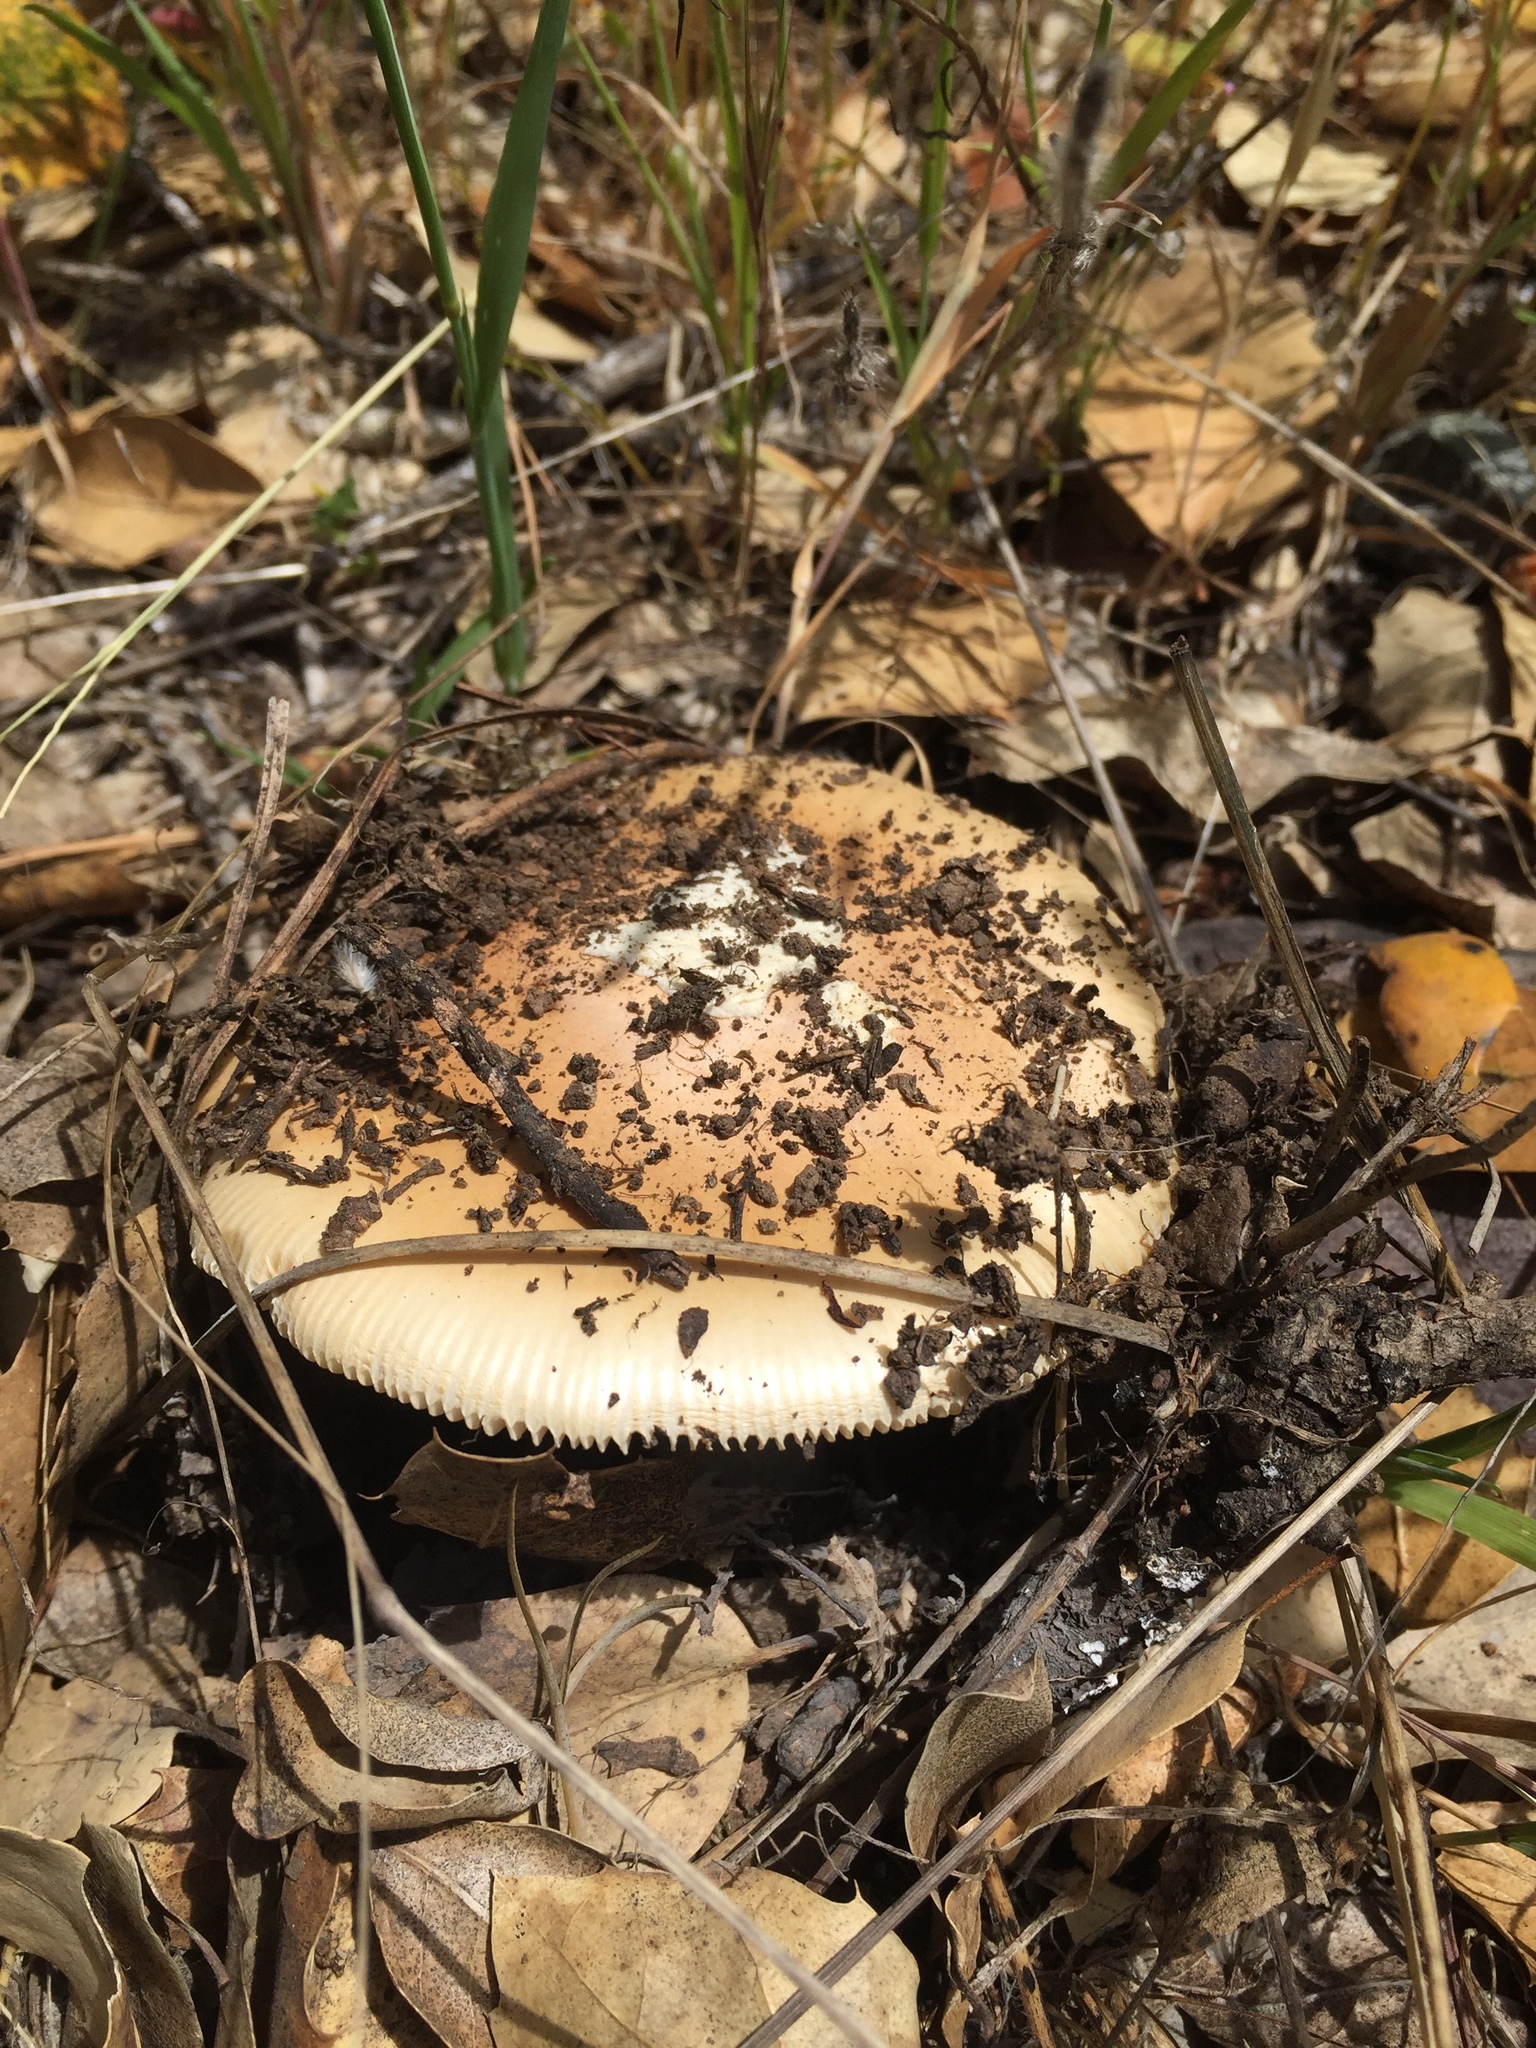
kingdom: Fungi
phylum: Basidiomycota
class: Agaricomycetes
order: Agaricales
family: Amanitaceae
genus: Amanita
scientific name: Amanita velosa
